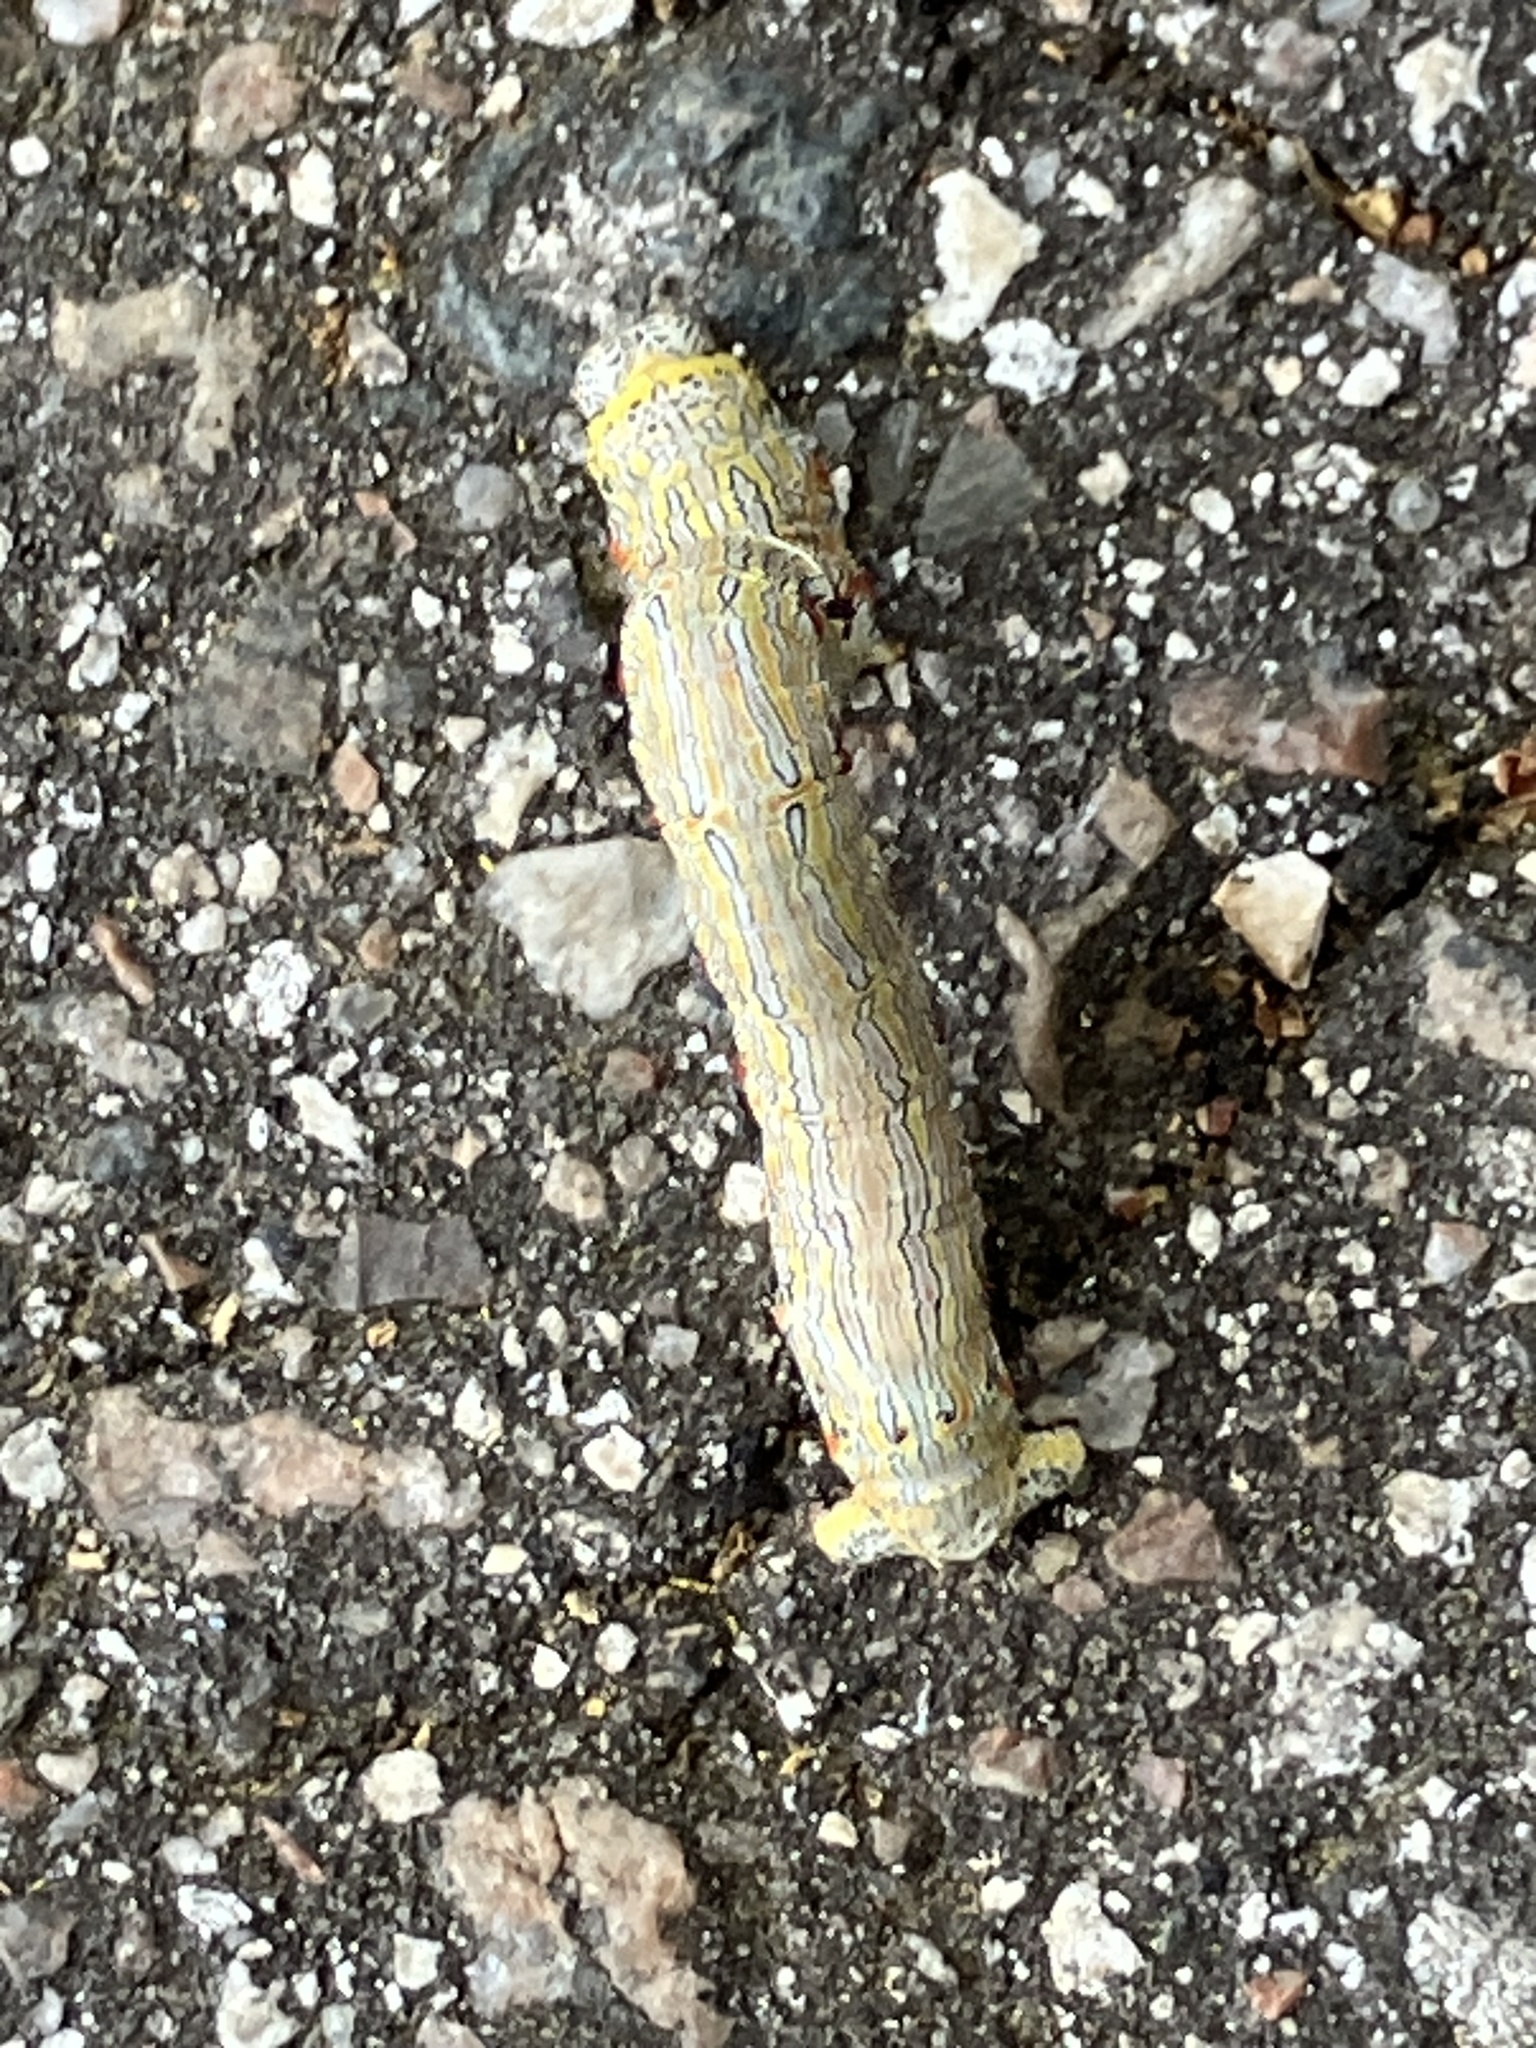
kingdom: Animalia
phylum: Arthropoda
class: Insecta
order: Lepidoptera
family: Geometridae
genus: Lycia
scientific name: Lycia ypsilon
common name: Wooly gray
